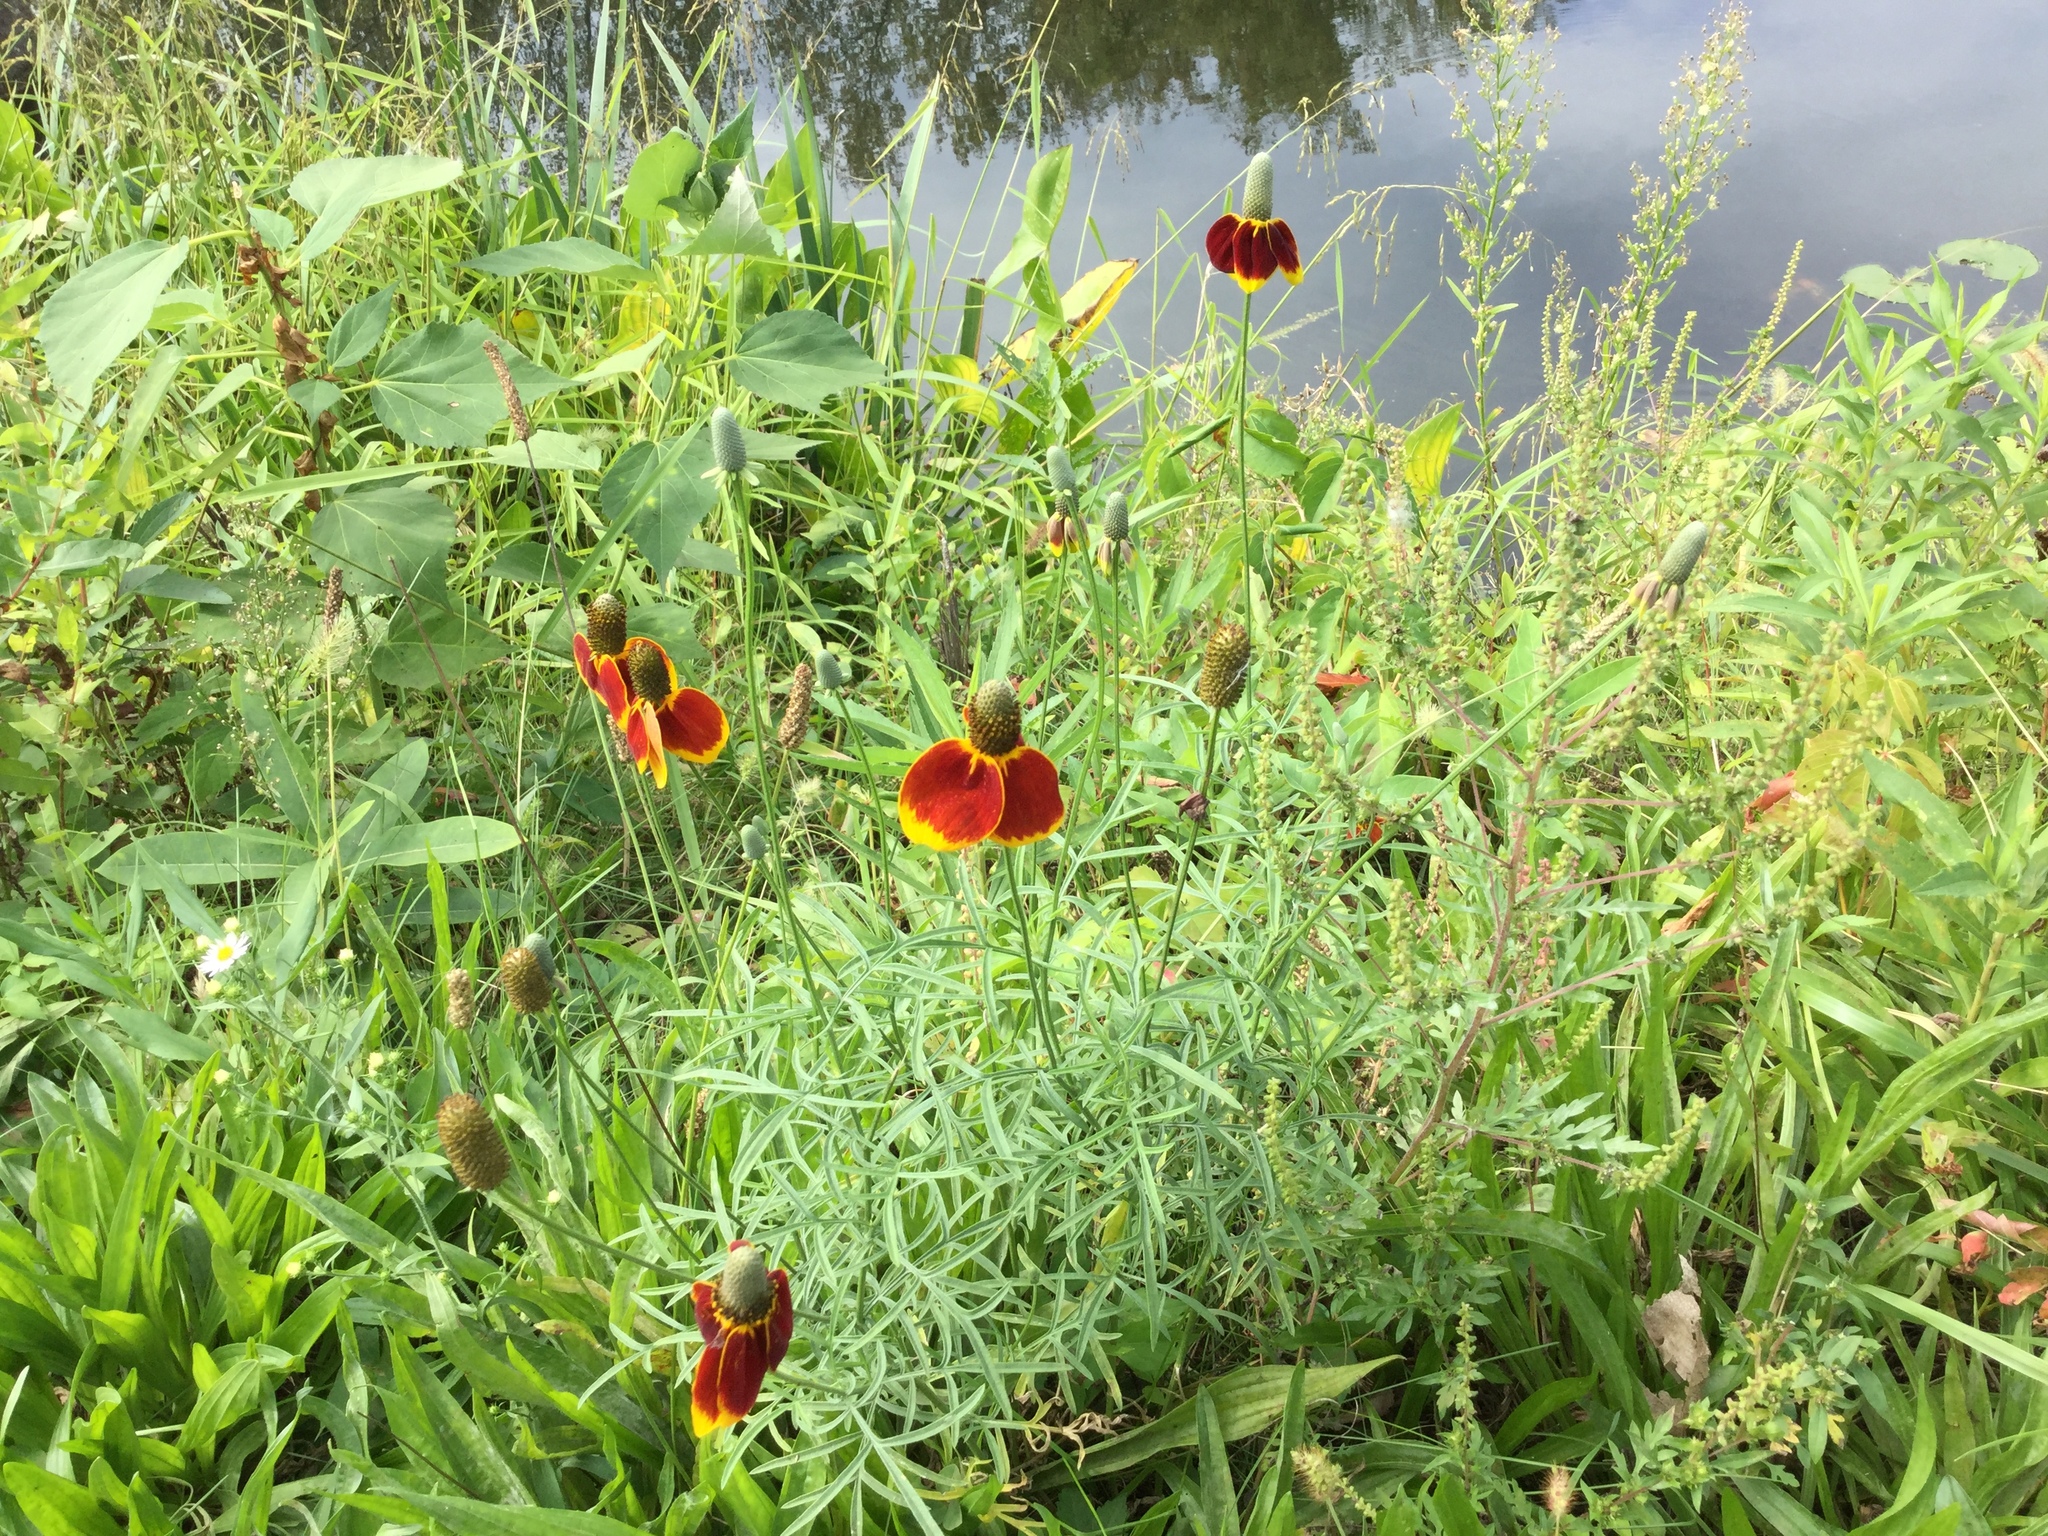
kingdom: Plantae
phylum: Tracheophyta
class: Magnoliopsida
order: Asterales
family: Asteraceae
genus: Ratibida
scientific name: Ratibida columnifera
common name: Prairie coneflower
